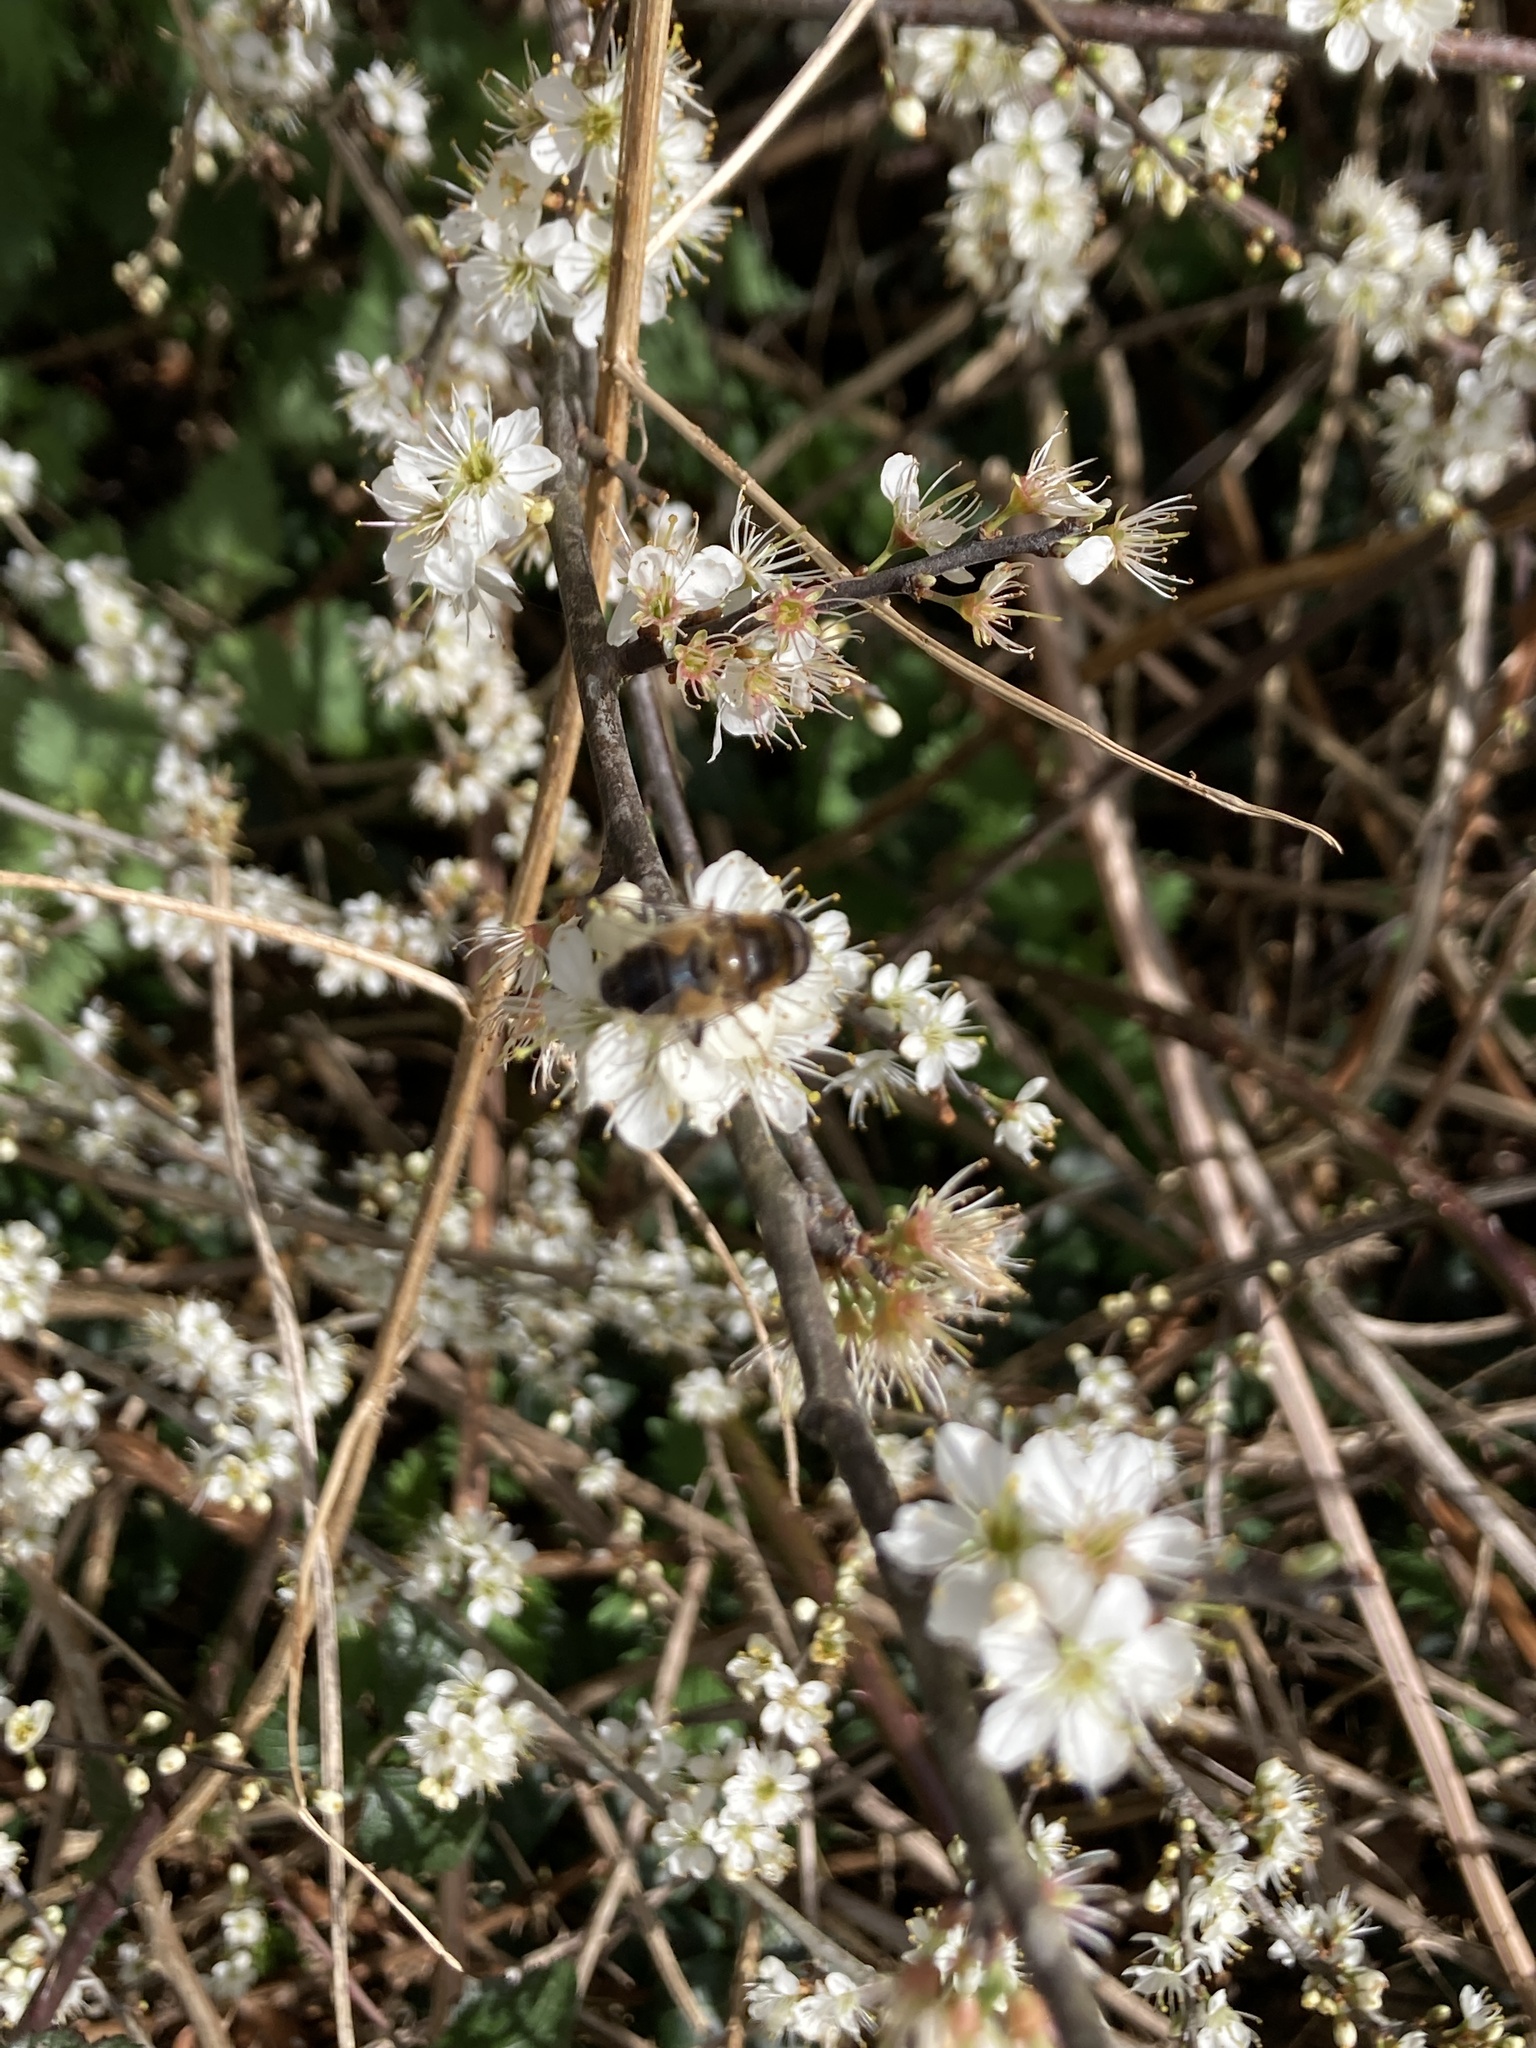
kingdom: Animalia
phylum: Arthropoda
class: Insecta
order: Diptera
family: Syrphidae
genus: Eristalis
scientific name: Eristalis pertinax
